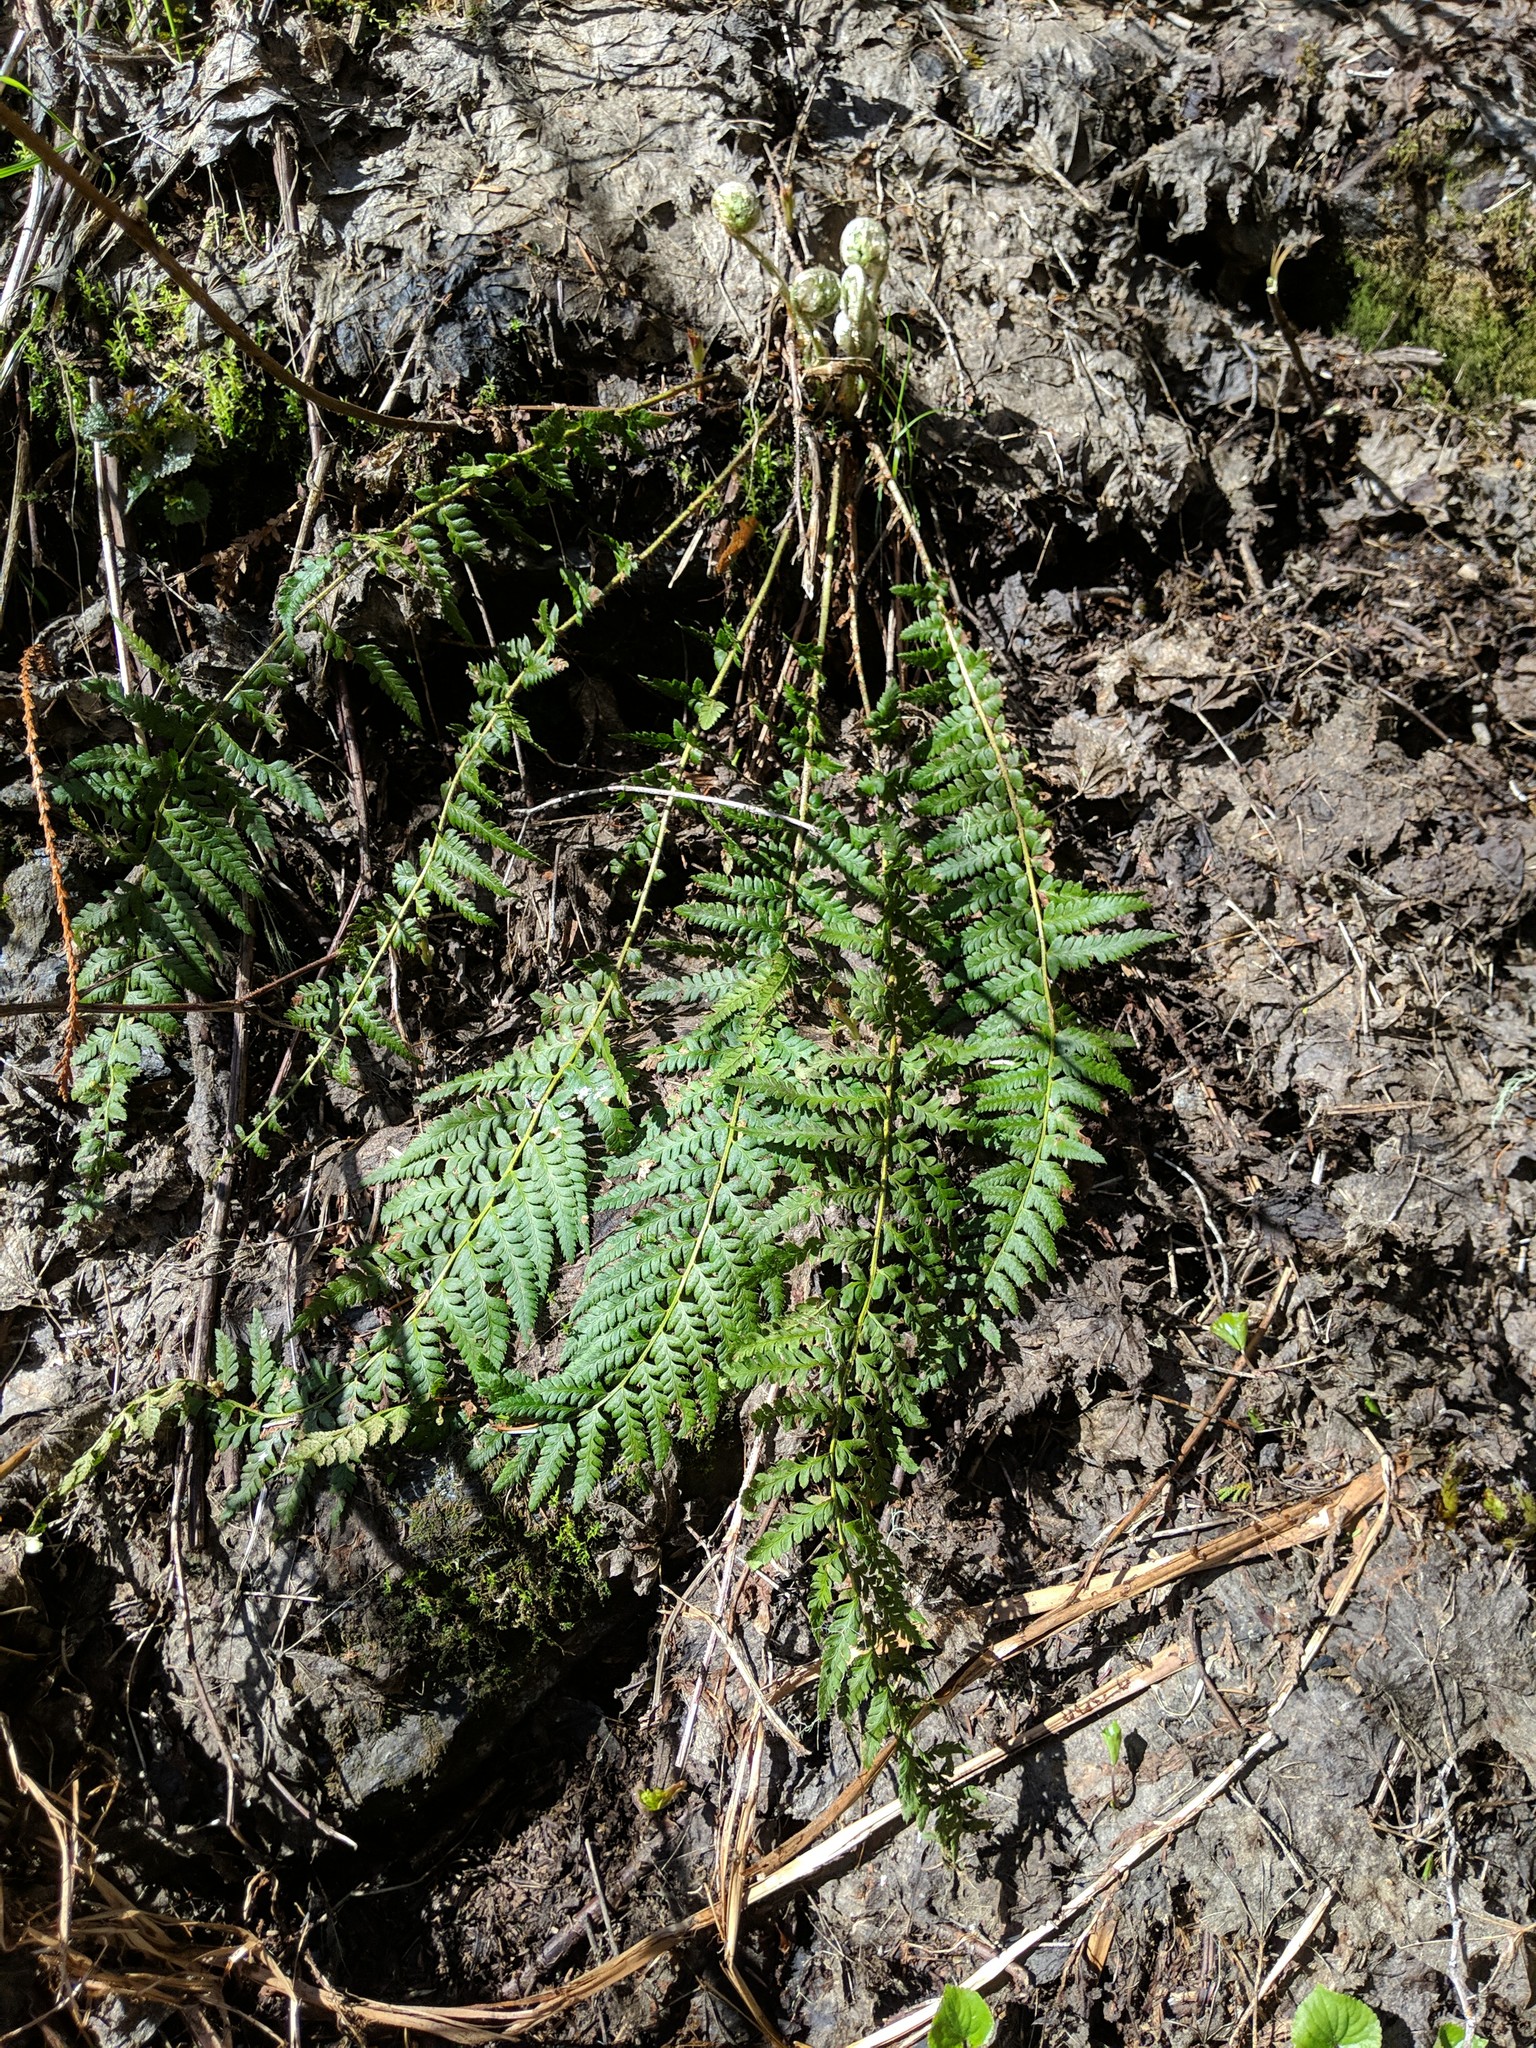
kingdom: Plantae
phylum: Tracheophyta
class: Polypodiopsida
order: Polypodiales
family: Dryopteridaceae
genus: Polystichum
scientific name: Polystichum andersonii
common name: Anderson's holly fern
